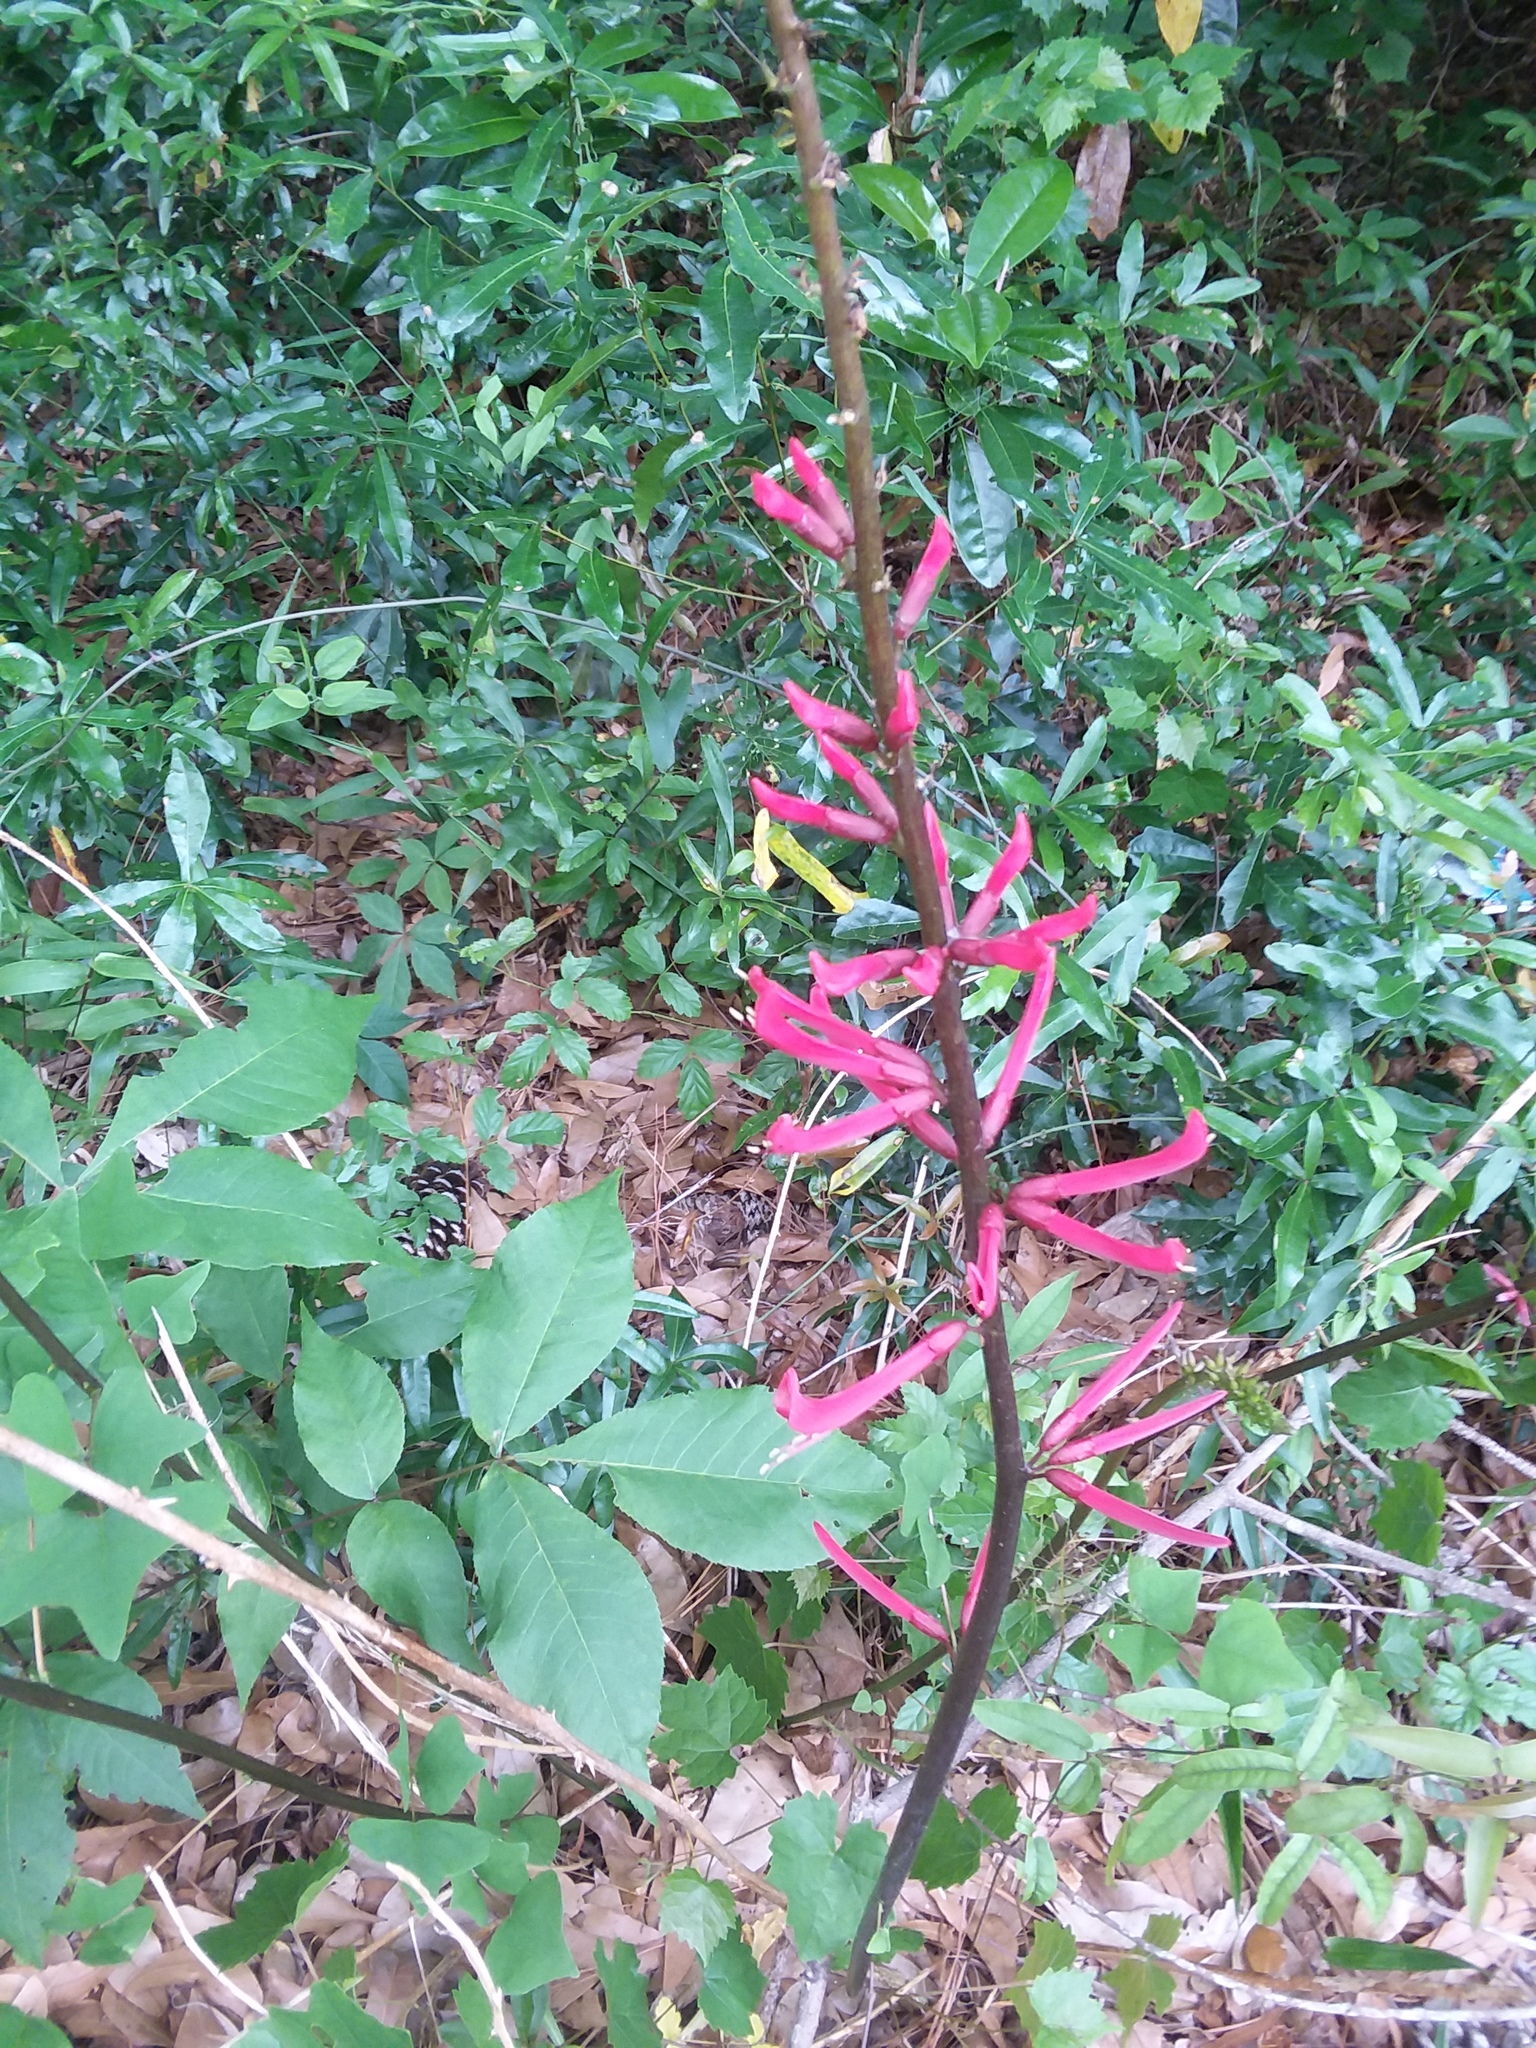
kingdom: Plantae
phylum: Tracheophyta
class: Magnoliopsida
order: Fabales
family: Fabaceae
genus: Erythrina
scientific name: Erythrina herbacea
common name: Coral-bean
